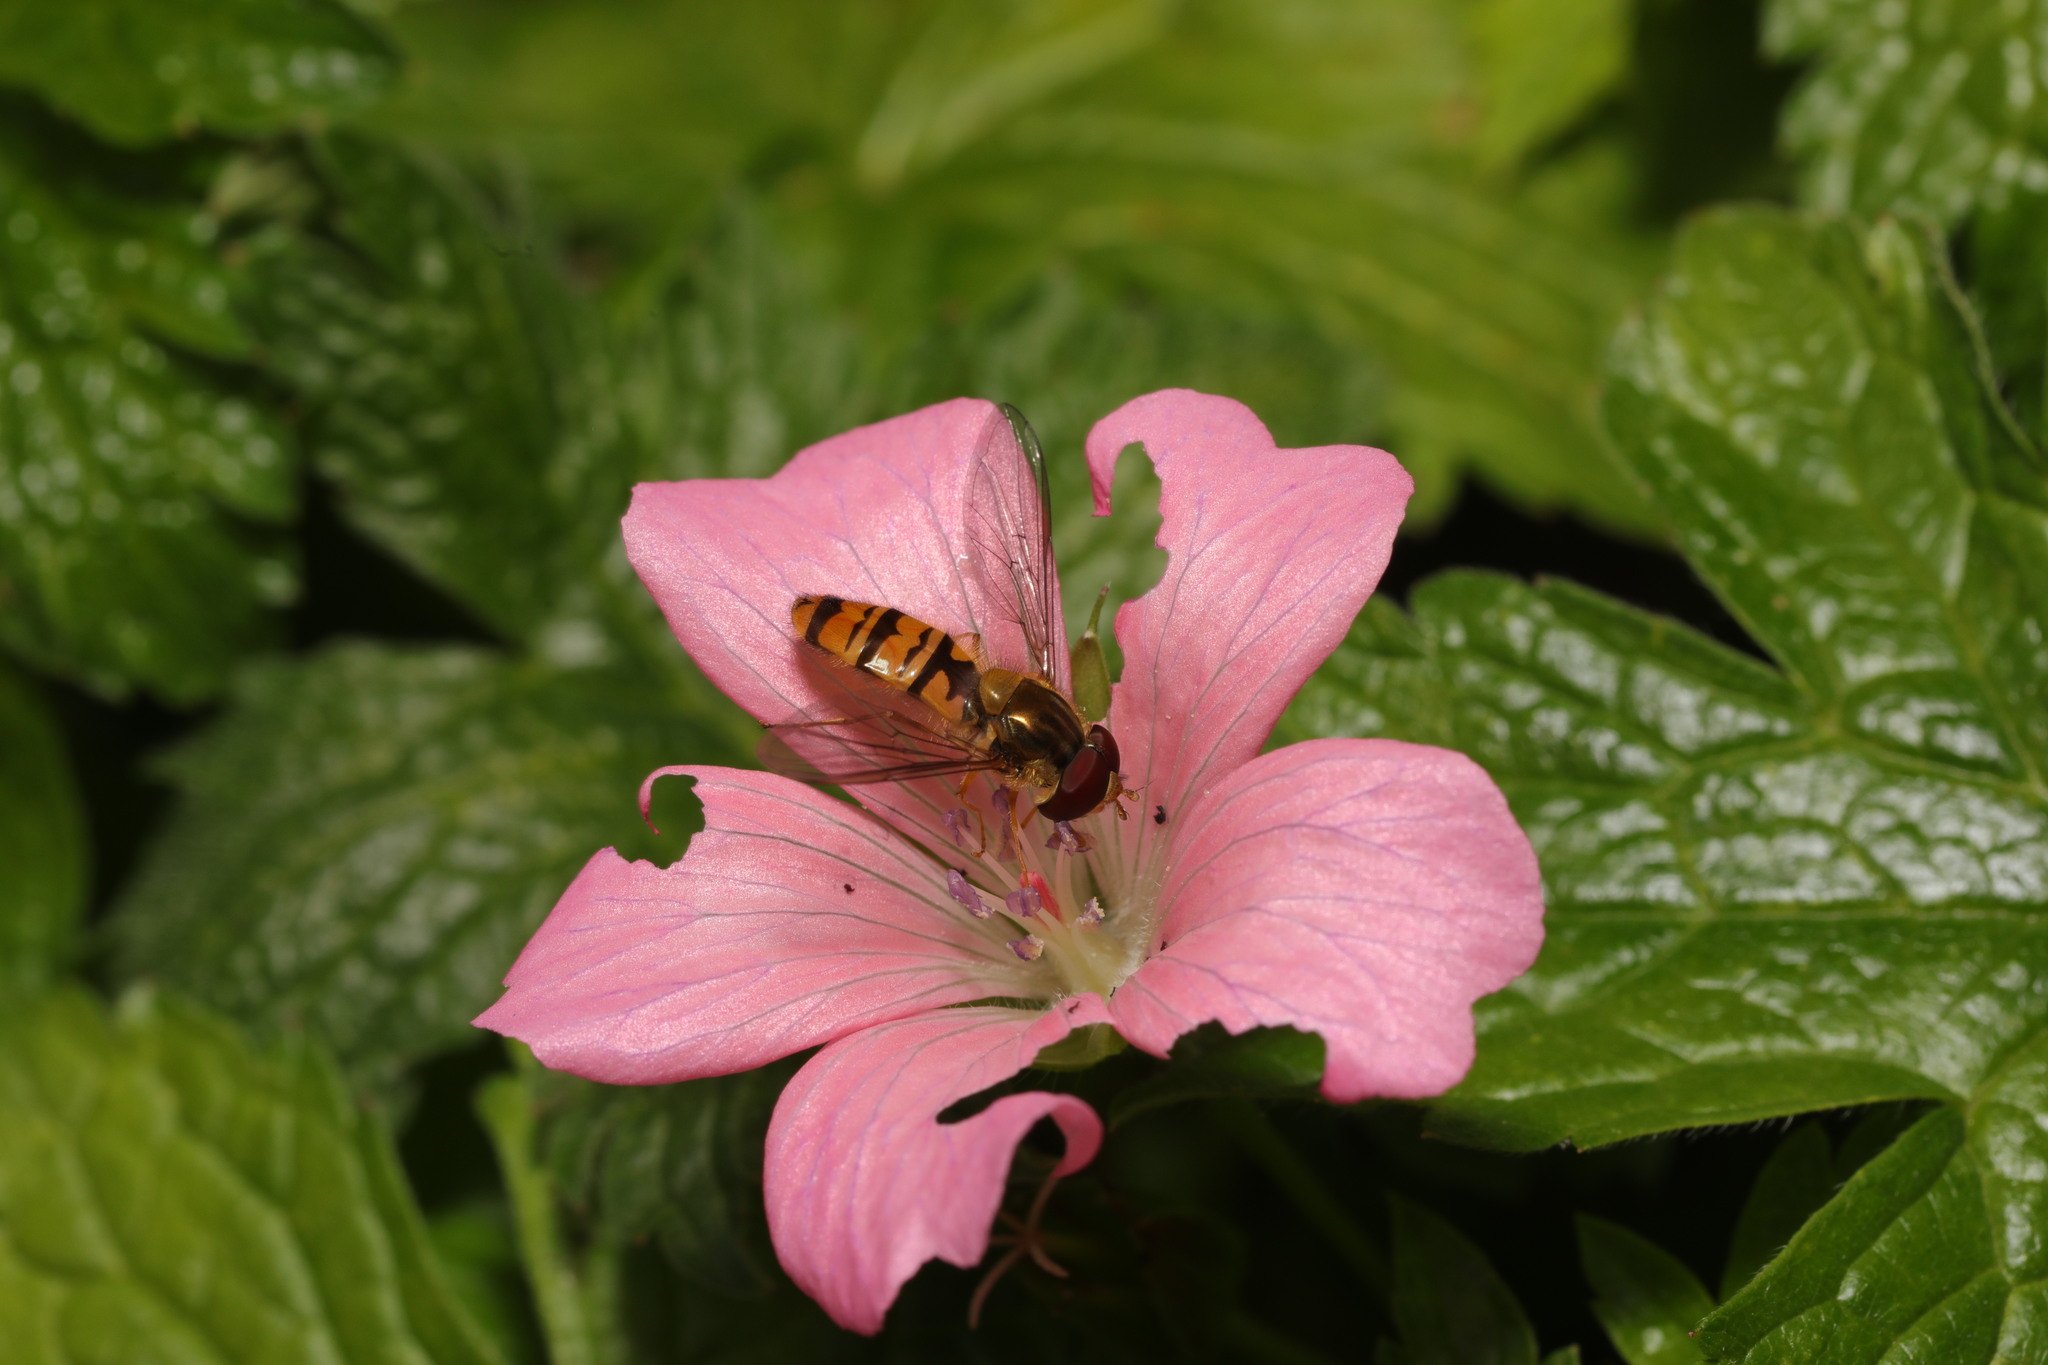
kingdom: Animalia
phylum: Arthropoda
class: Insecta
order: Diptera
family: Syrphidae
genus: Episyrphus
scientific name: Episyrphus balteatus
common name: Marmalade hoverfly
